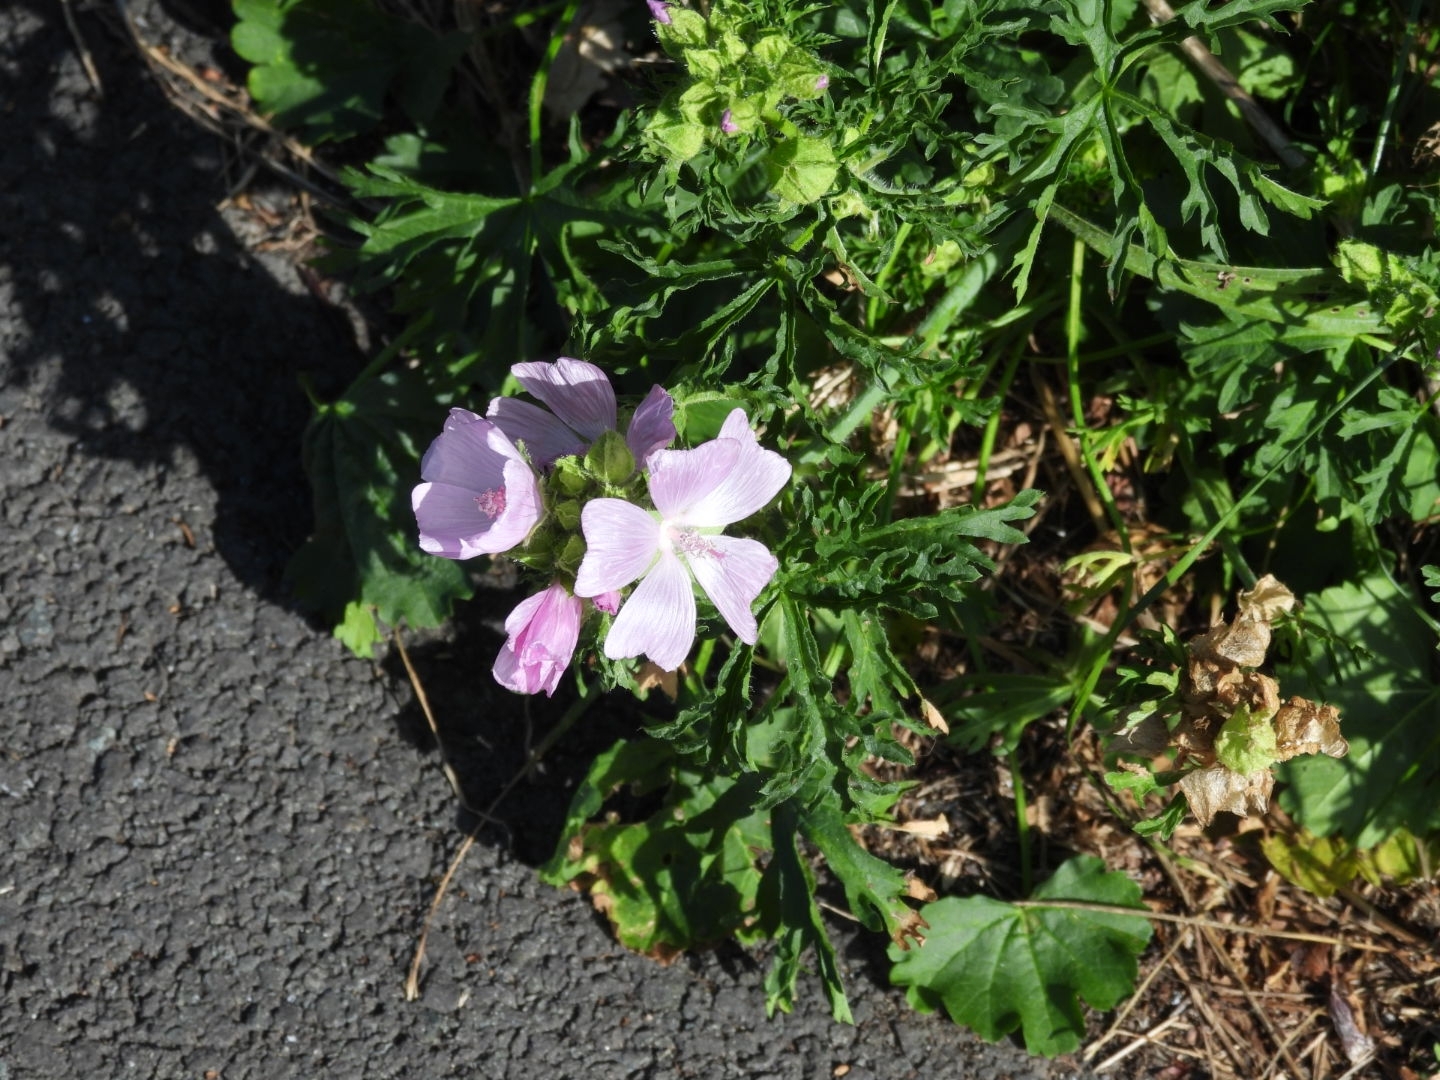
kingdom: Plantae
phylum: Tracheophyta
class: Magnoliopsida
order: Malvales
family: Malvaceae
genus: Malva
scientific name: Malva moschata
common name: Musk mallow
